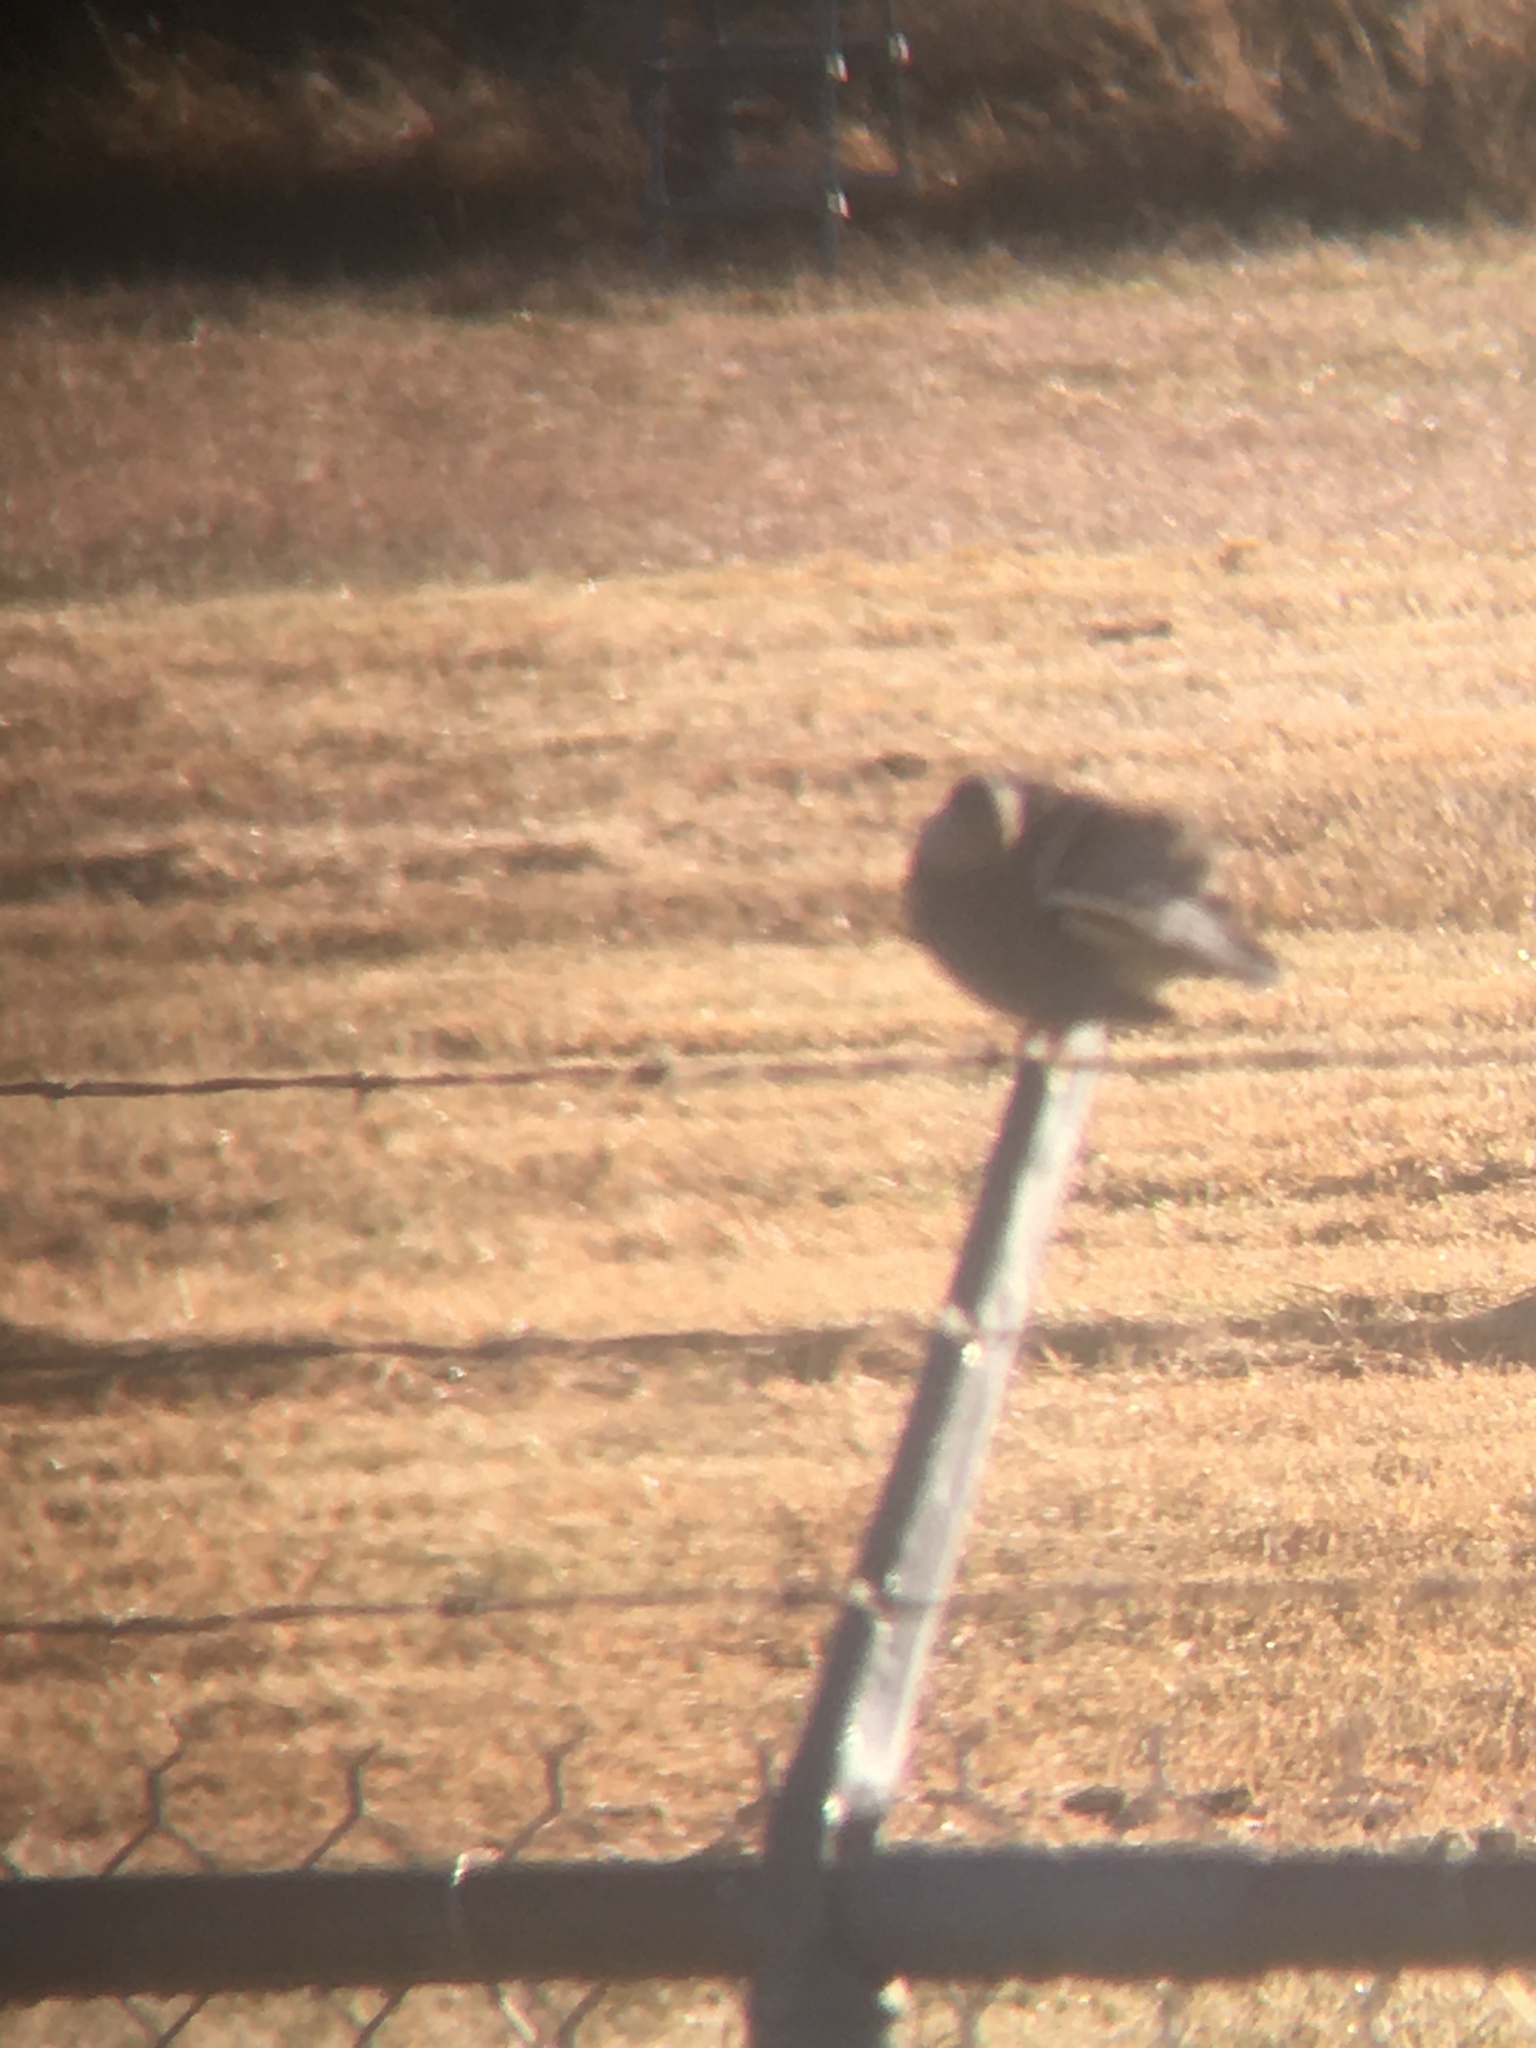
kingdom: Animalia
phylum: Chordata
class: Aves
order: Columbiformes
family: Columbidae
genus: Zenaida
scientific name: Zenaida macroura
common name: Mourning dove
